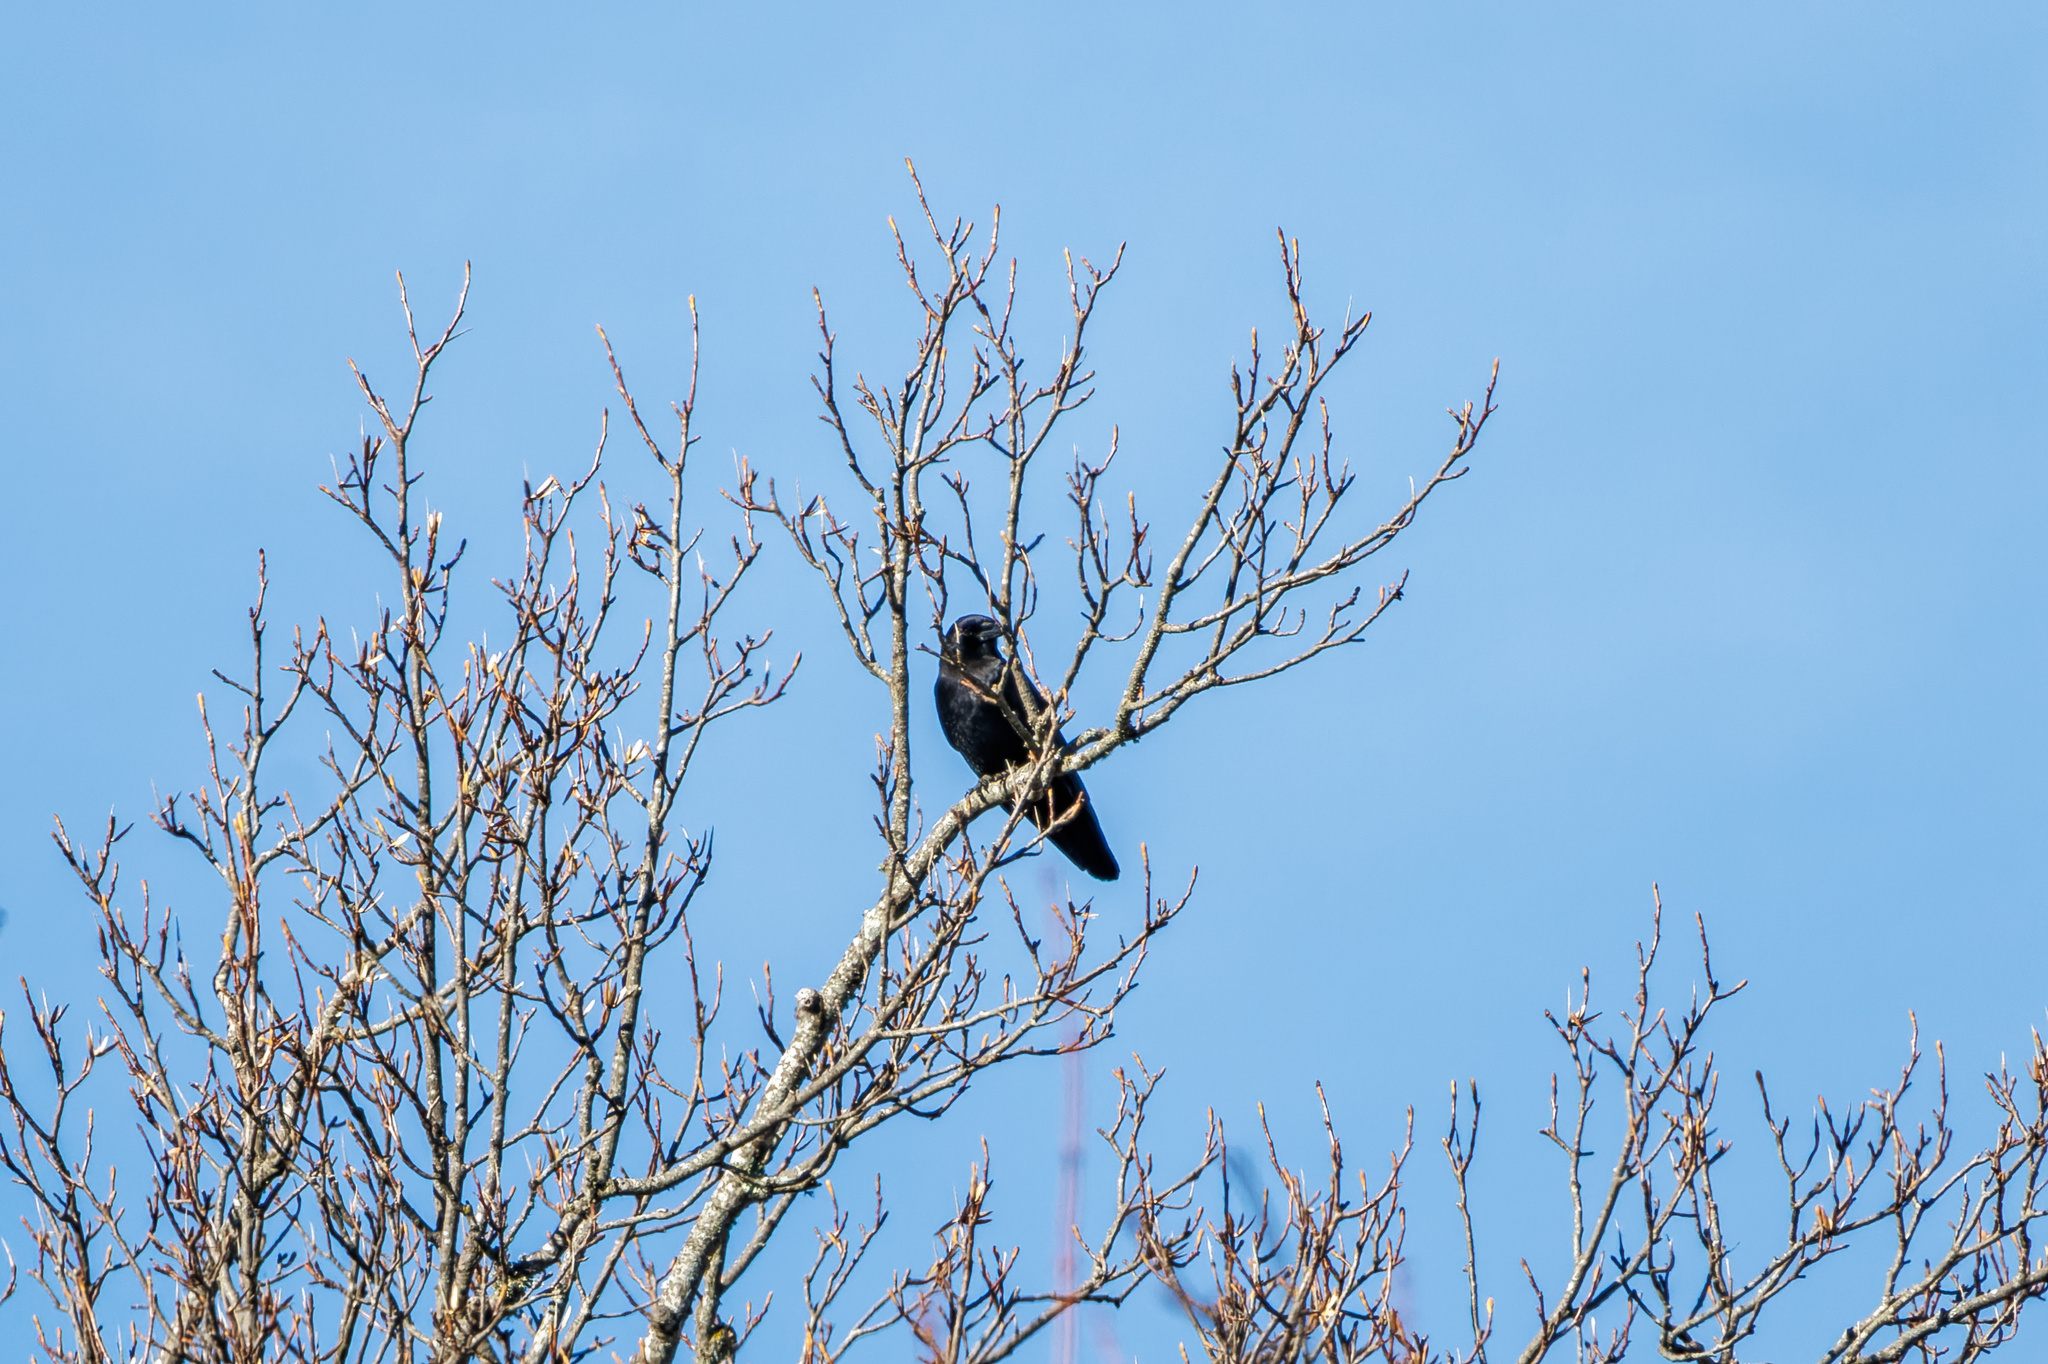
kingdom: Animalia
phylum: Chordata
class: Aves
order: Passeriformes
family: Corvidae
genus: Corvus
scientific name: Corvus brachyrhynchos
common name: American crow
